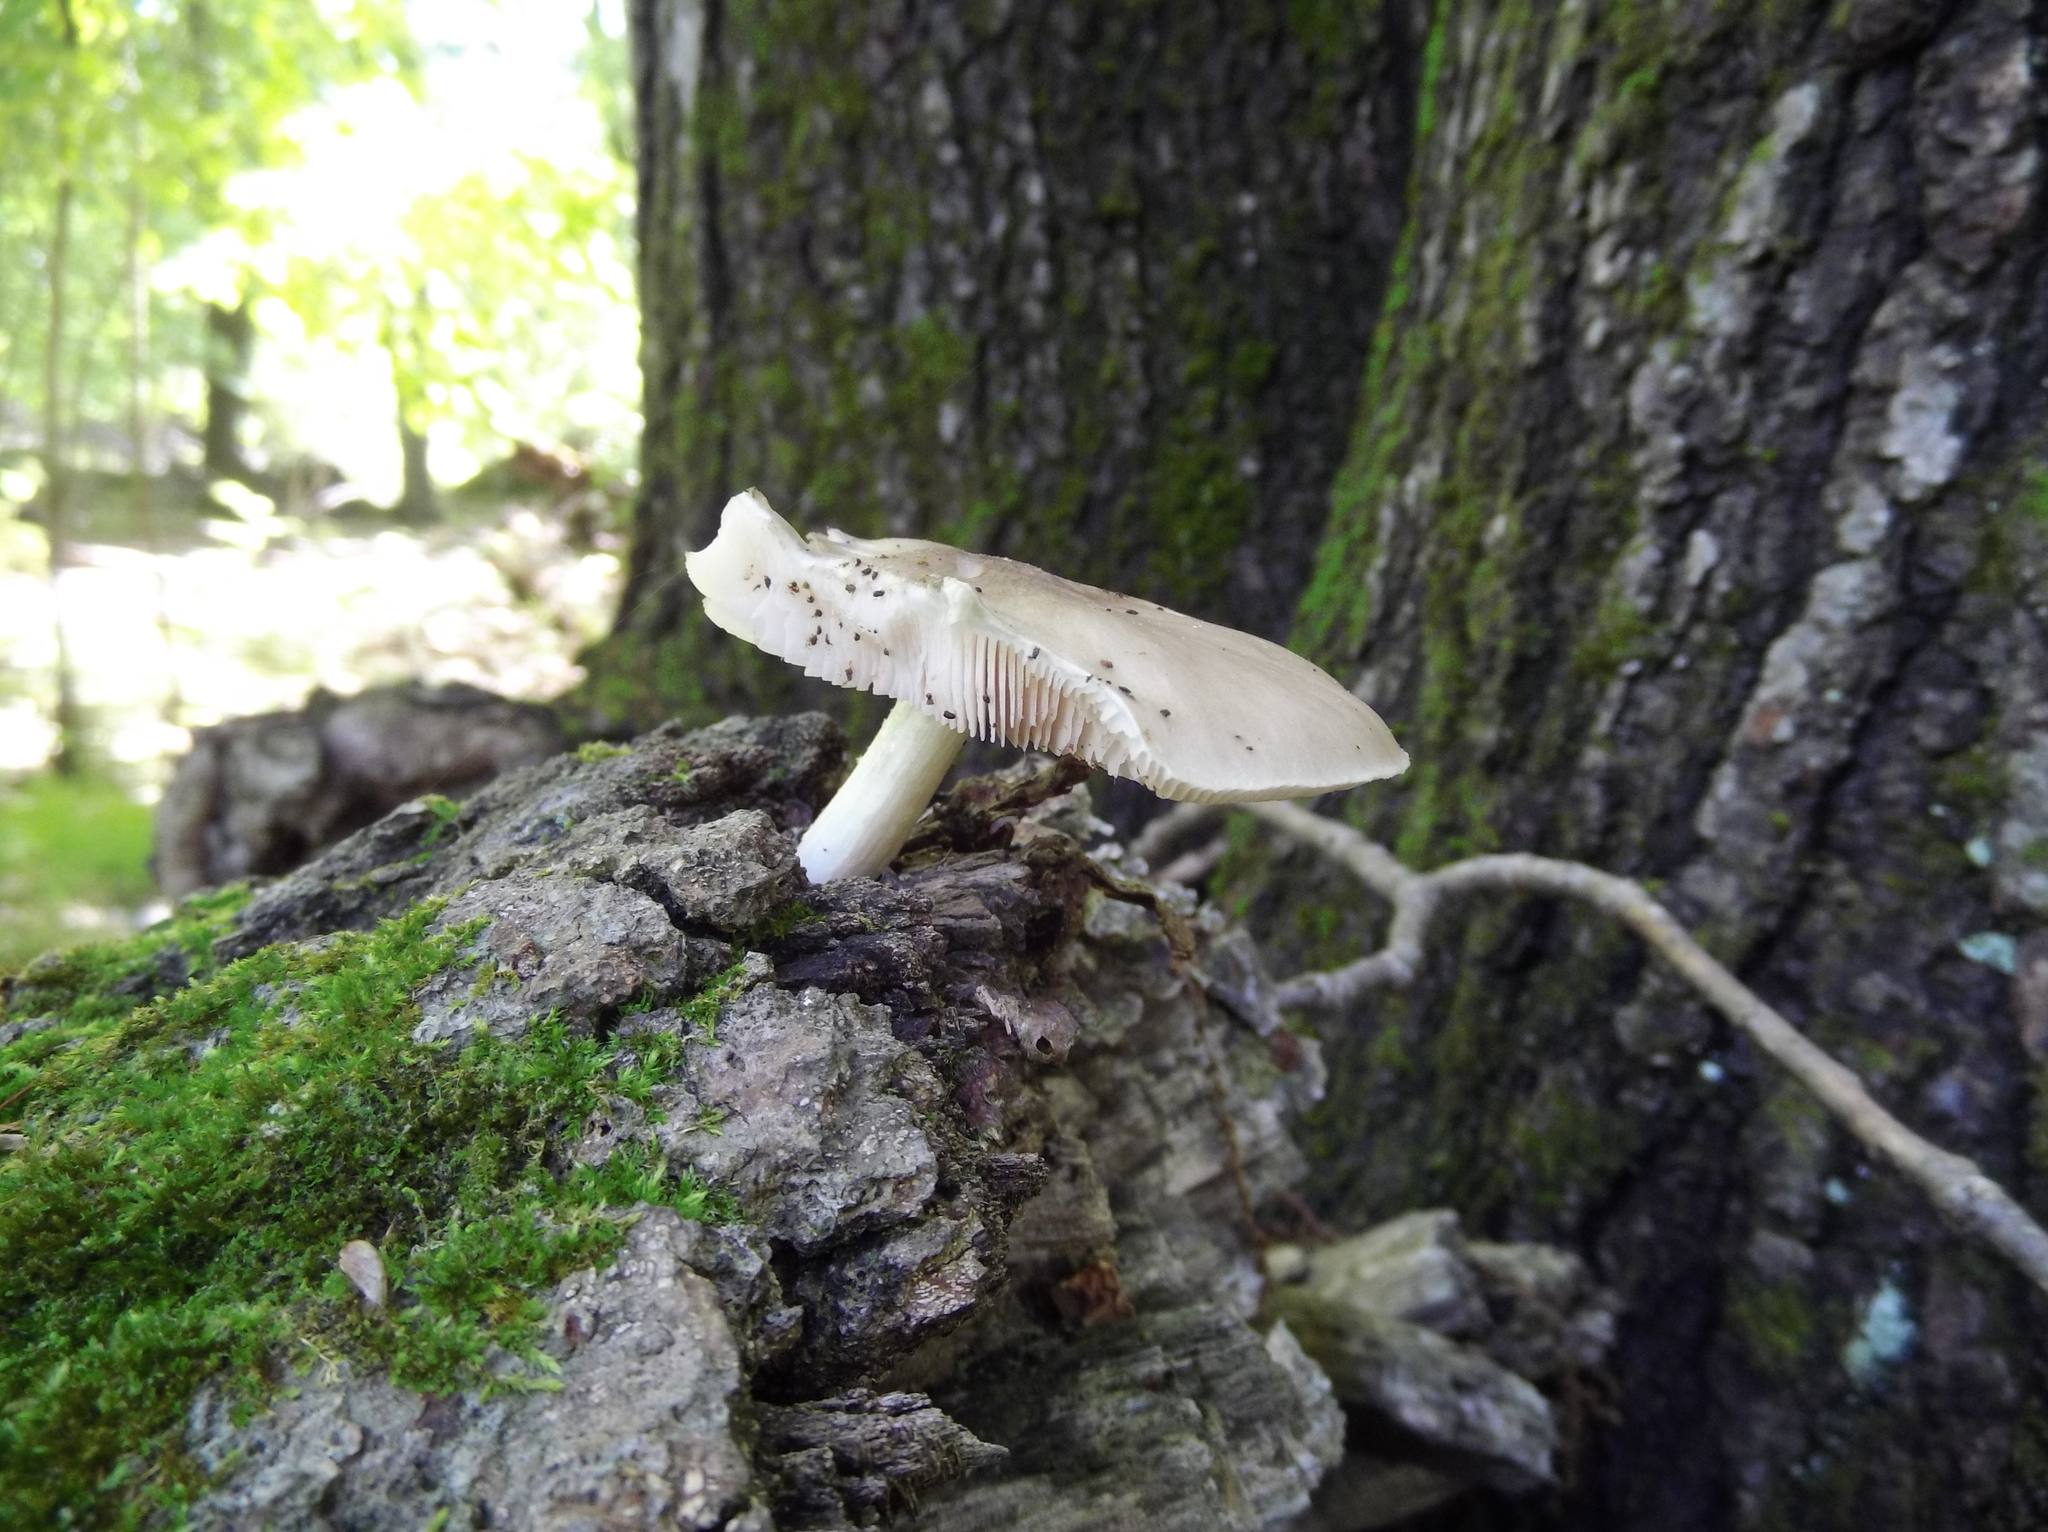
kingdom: Fungi
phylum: Basidiomycota
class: Agaricomycetes
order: Agaricales
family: Pluteaceae
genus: Pluteus
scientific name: Pluteus cervinus
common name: Deer shield
